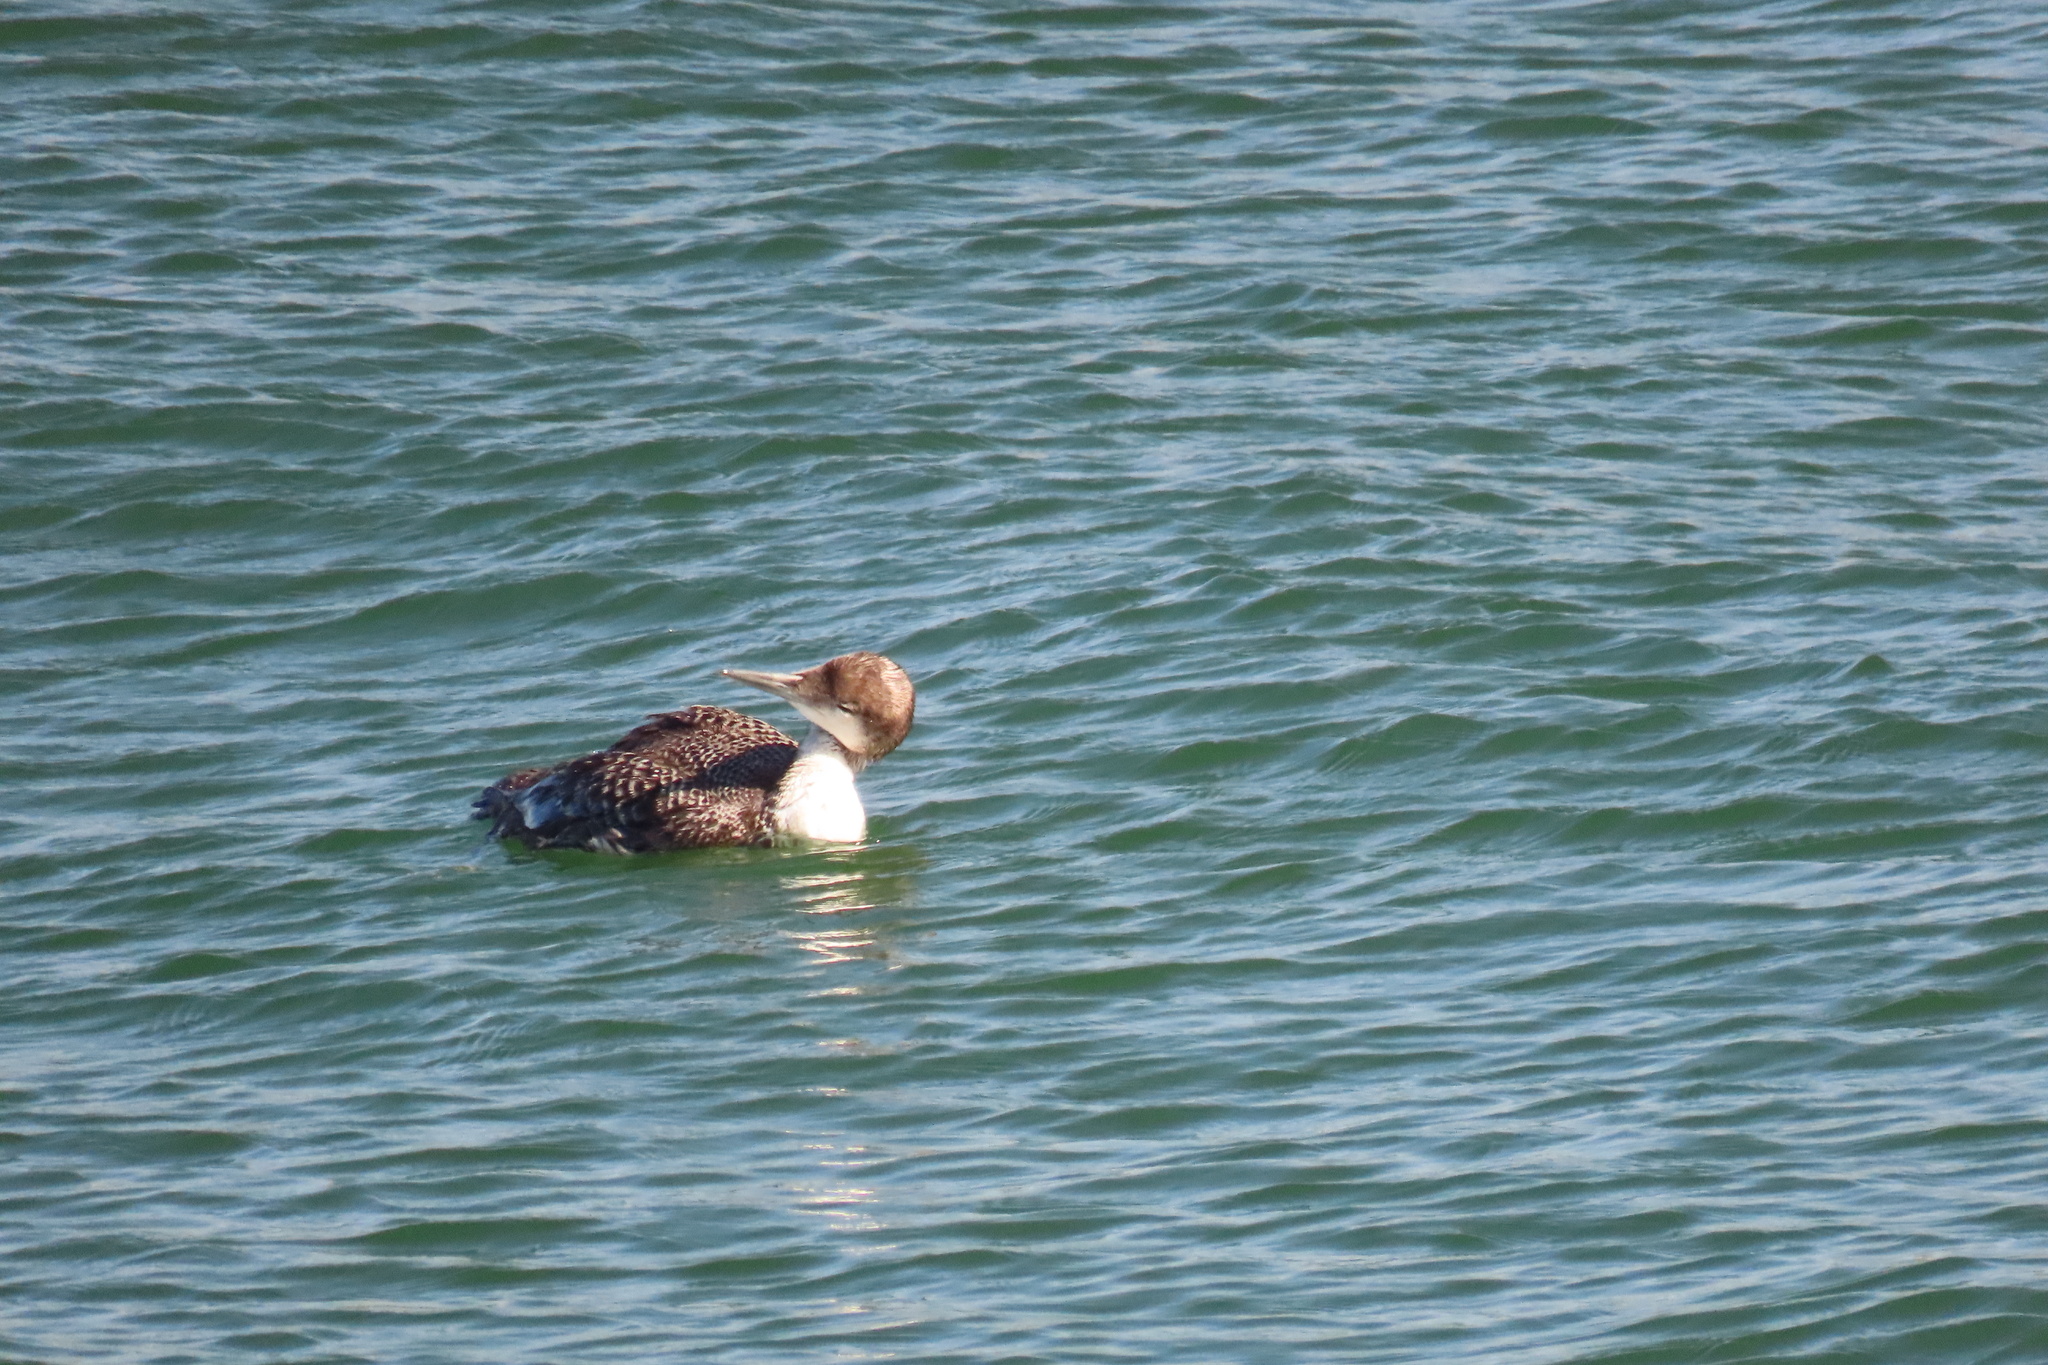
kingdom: Animalia
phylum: Chordata
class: Aves
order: Gaviiformes
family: Gaviidae
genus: Gavia
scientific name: Gavia immer
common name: Common loon
